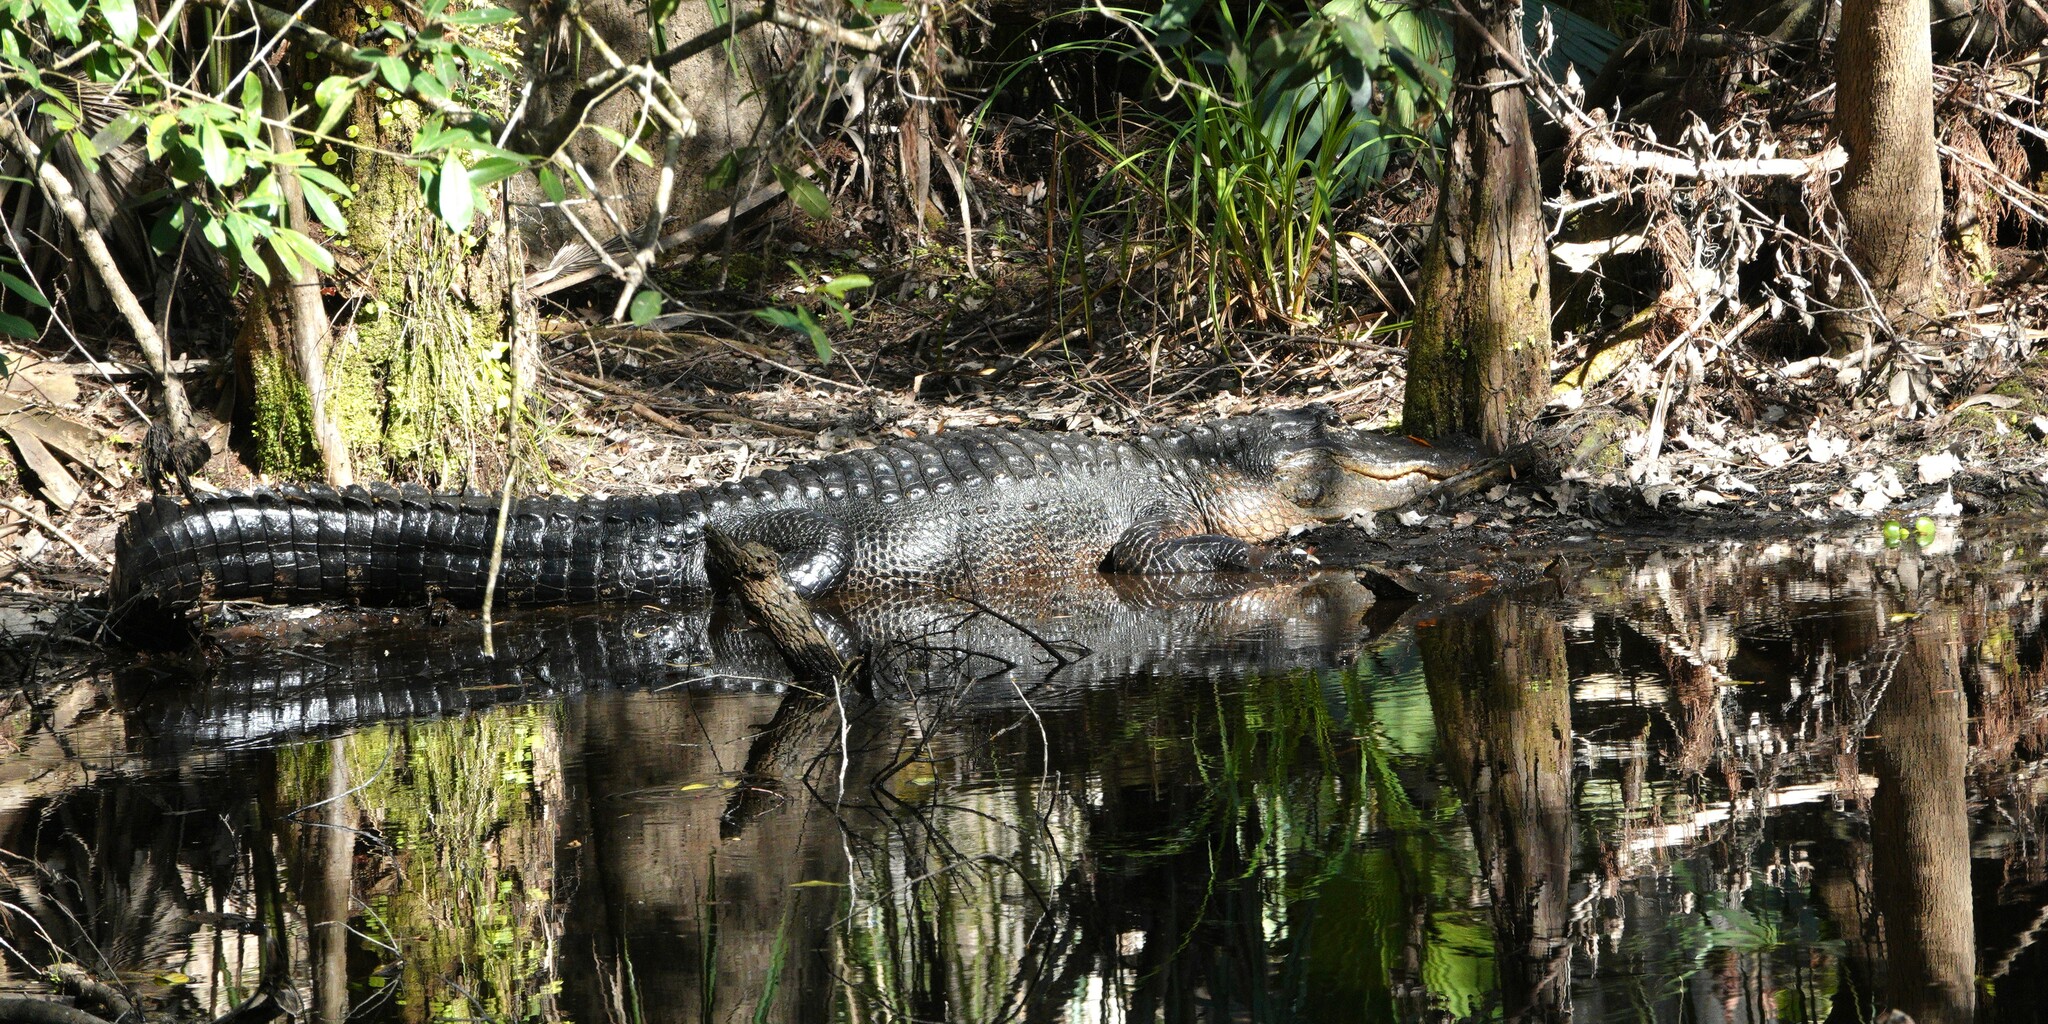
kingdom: Animalia
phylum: Chordata
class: Crocodylia
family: Alligatoridae
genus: Alligator
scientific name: Alligator mississippiensis
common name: American alligator
